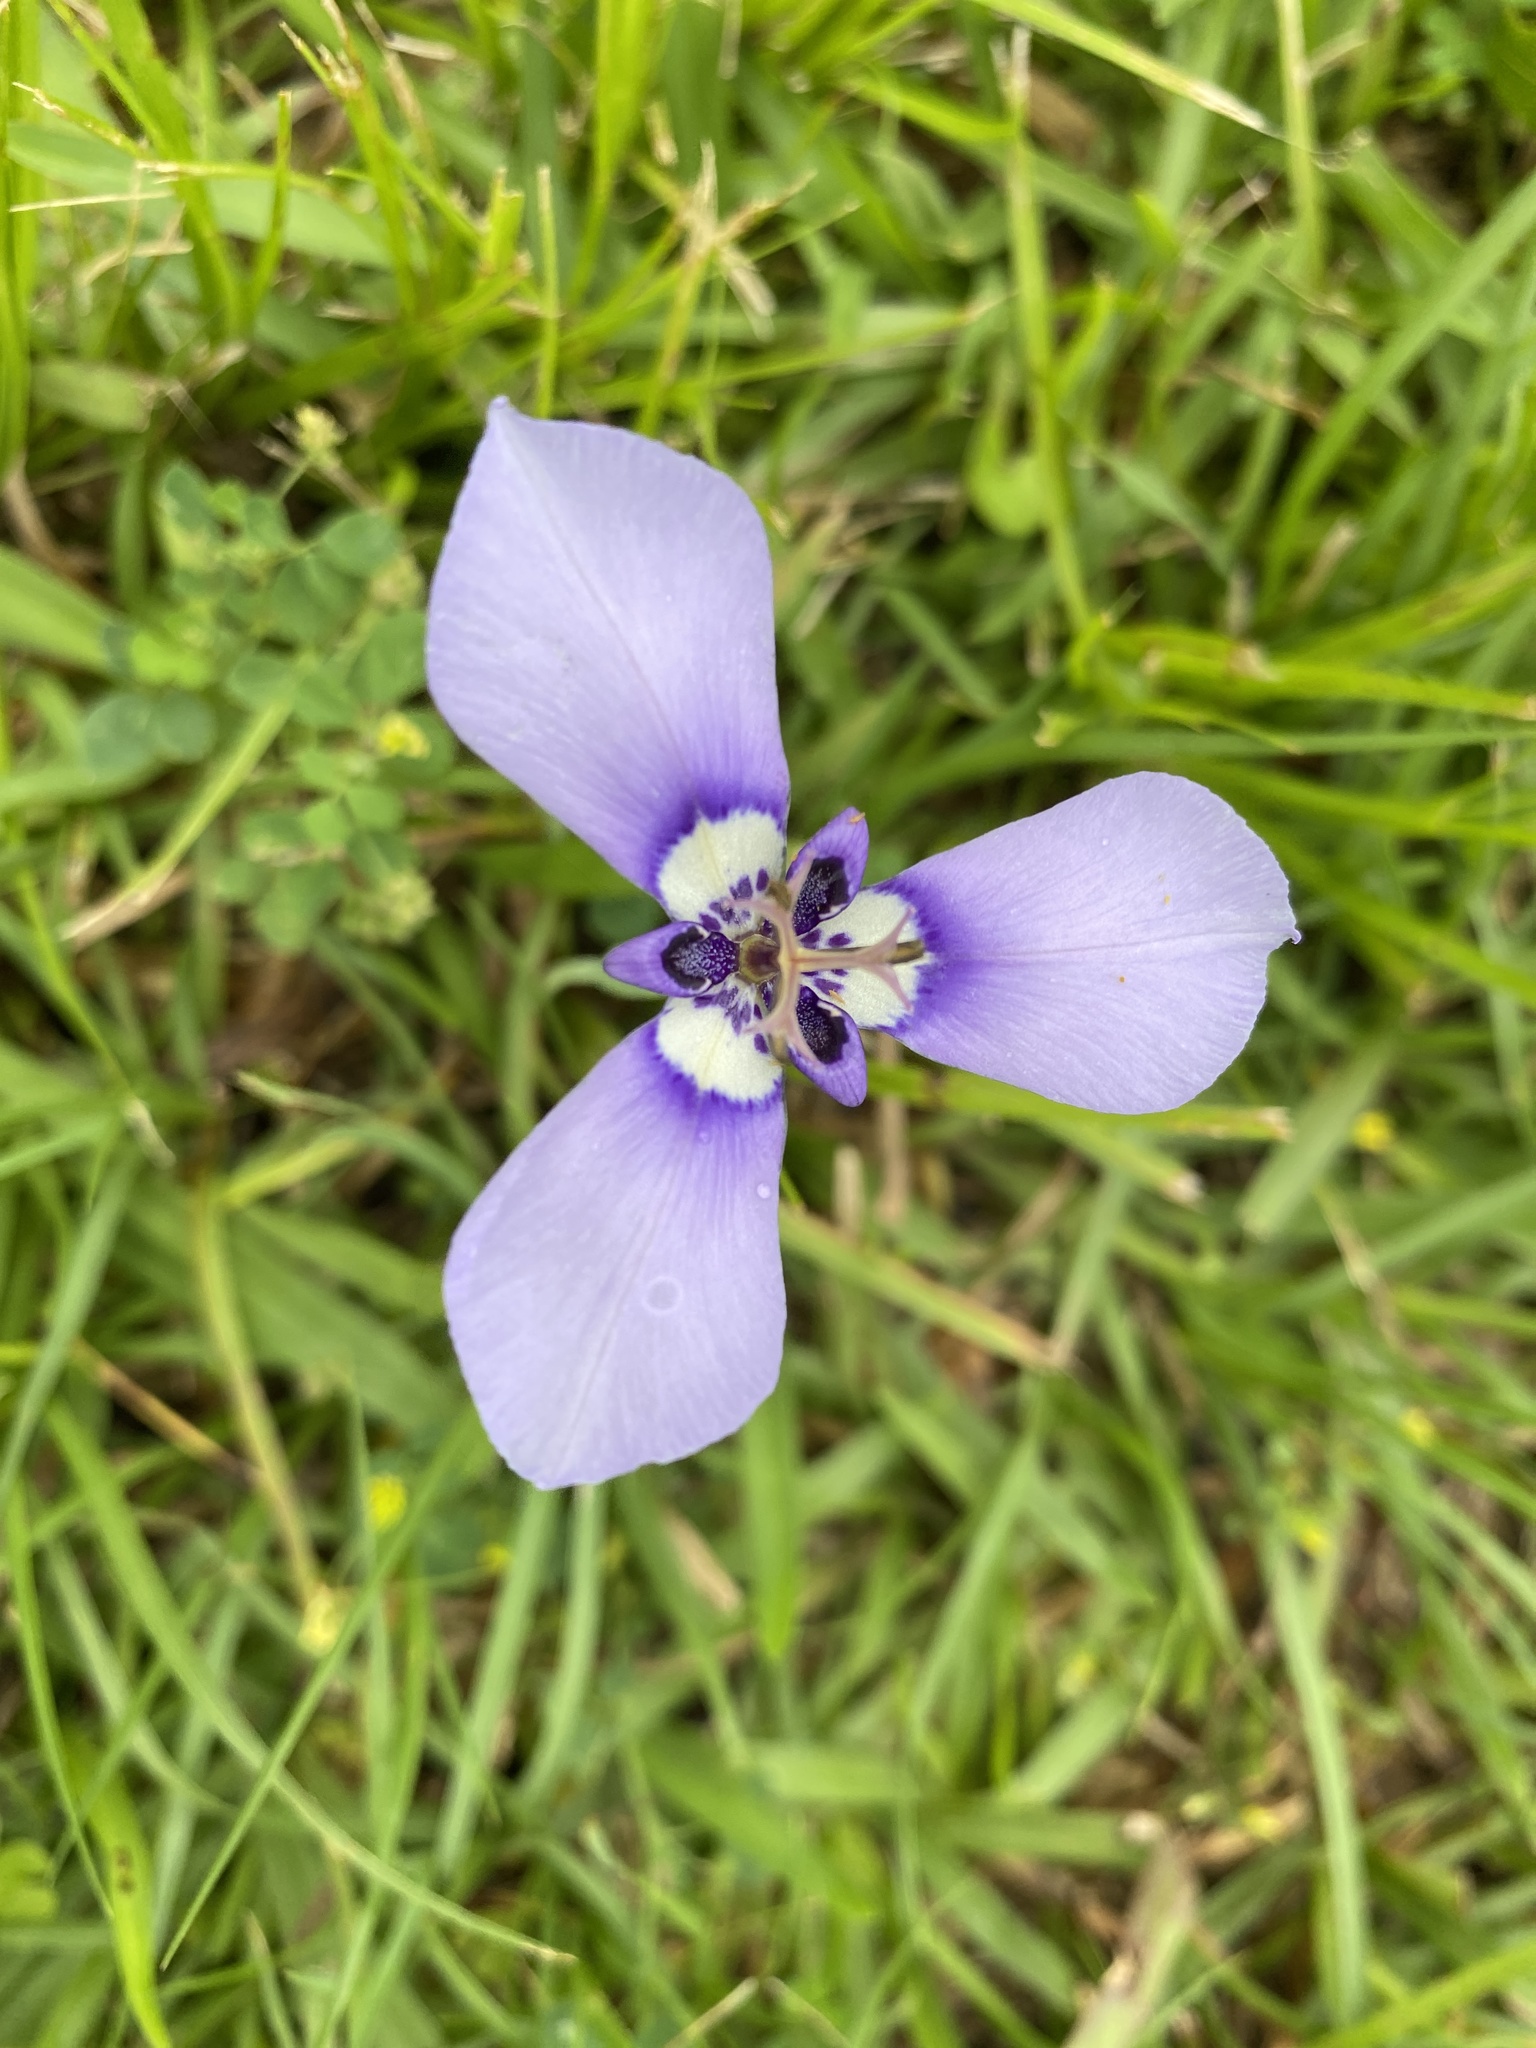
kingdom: Plantae
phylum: Tracheophyta
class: Liliopsida
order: Asparagales
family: Iridaceae
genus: Herbertia
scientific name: Herbertia lahue
